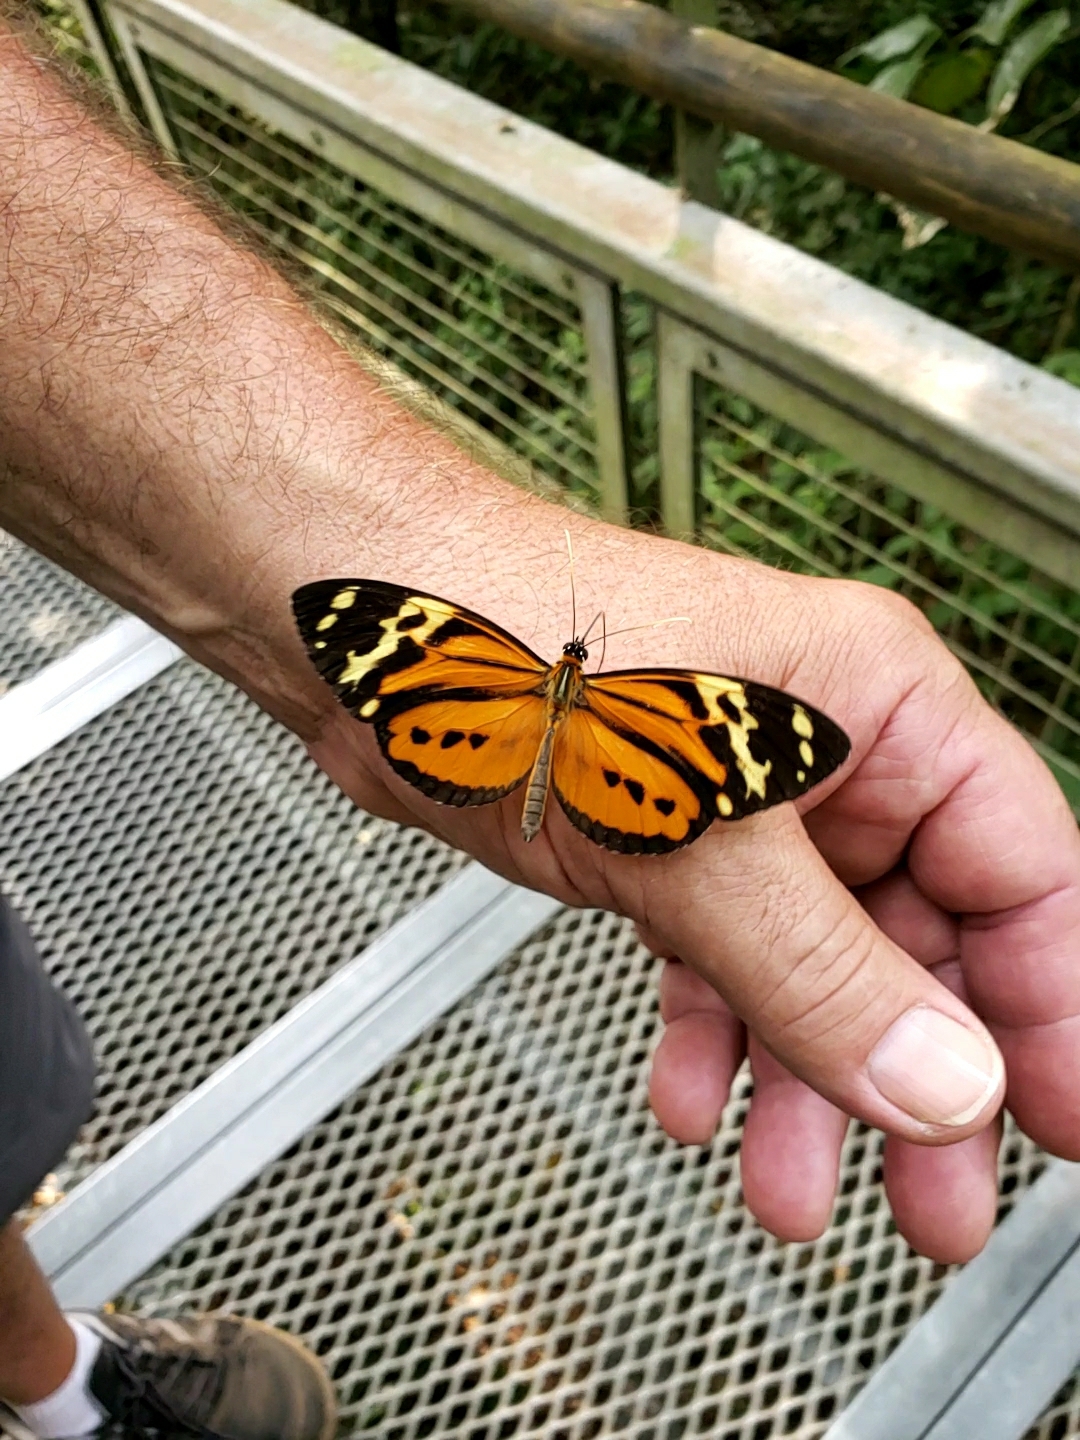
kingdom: Animalia
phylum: Arthropoda
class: Insecta
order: Lepidoptera
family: Nymphalidae
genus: Tithorea
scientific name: Tithorea harmonia
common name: Harmonia tigerwing
